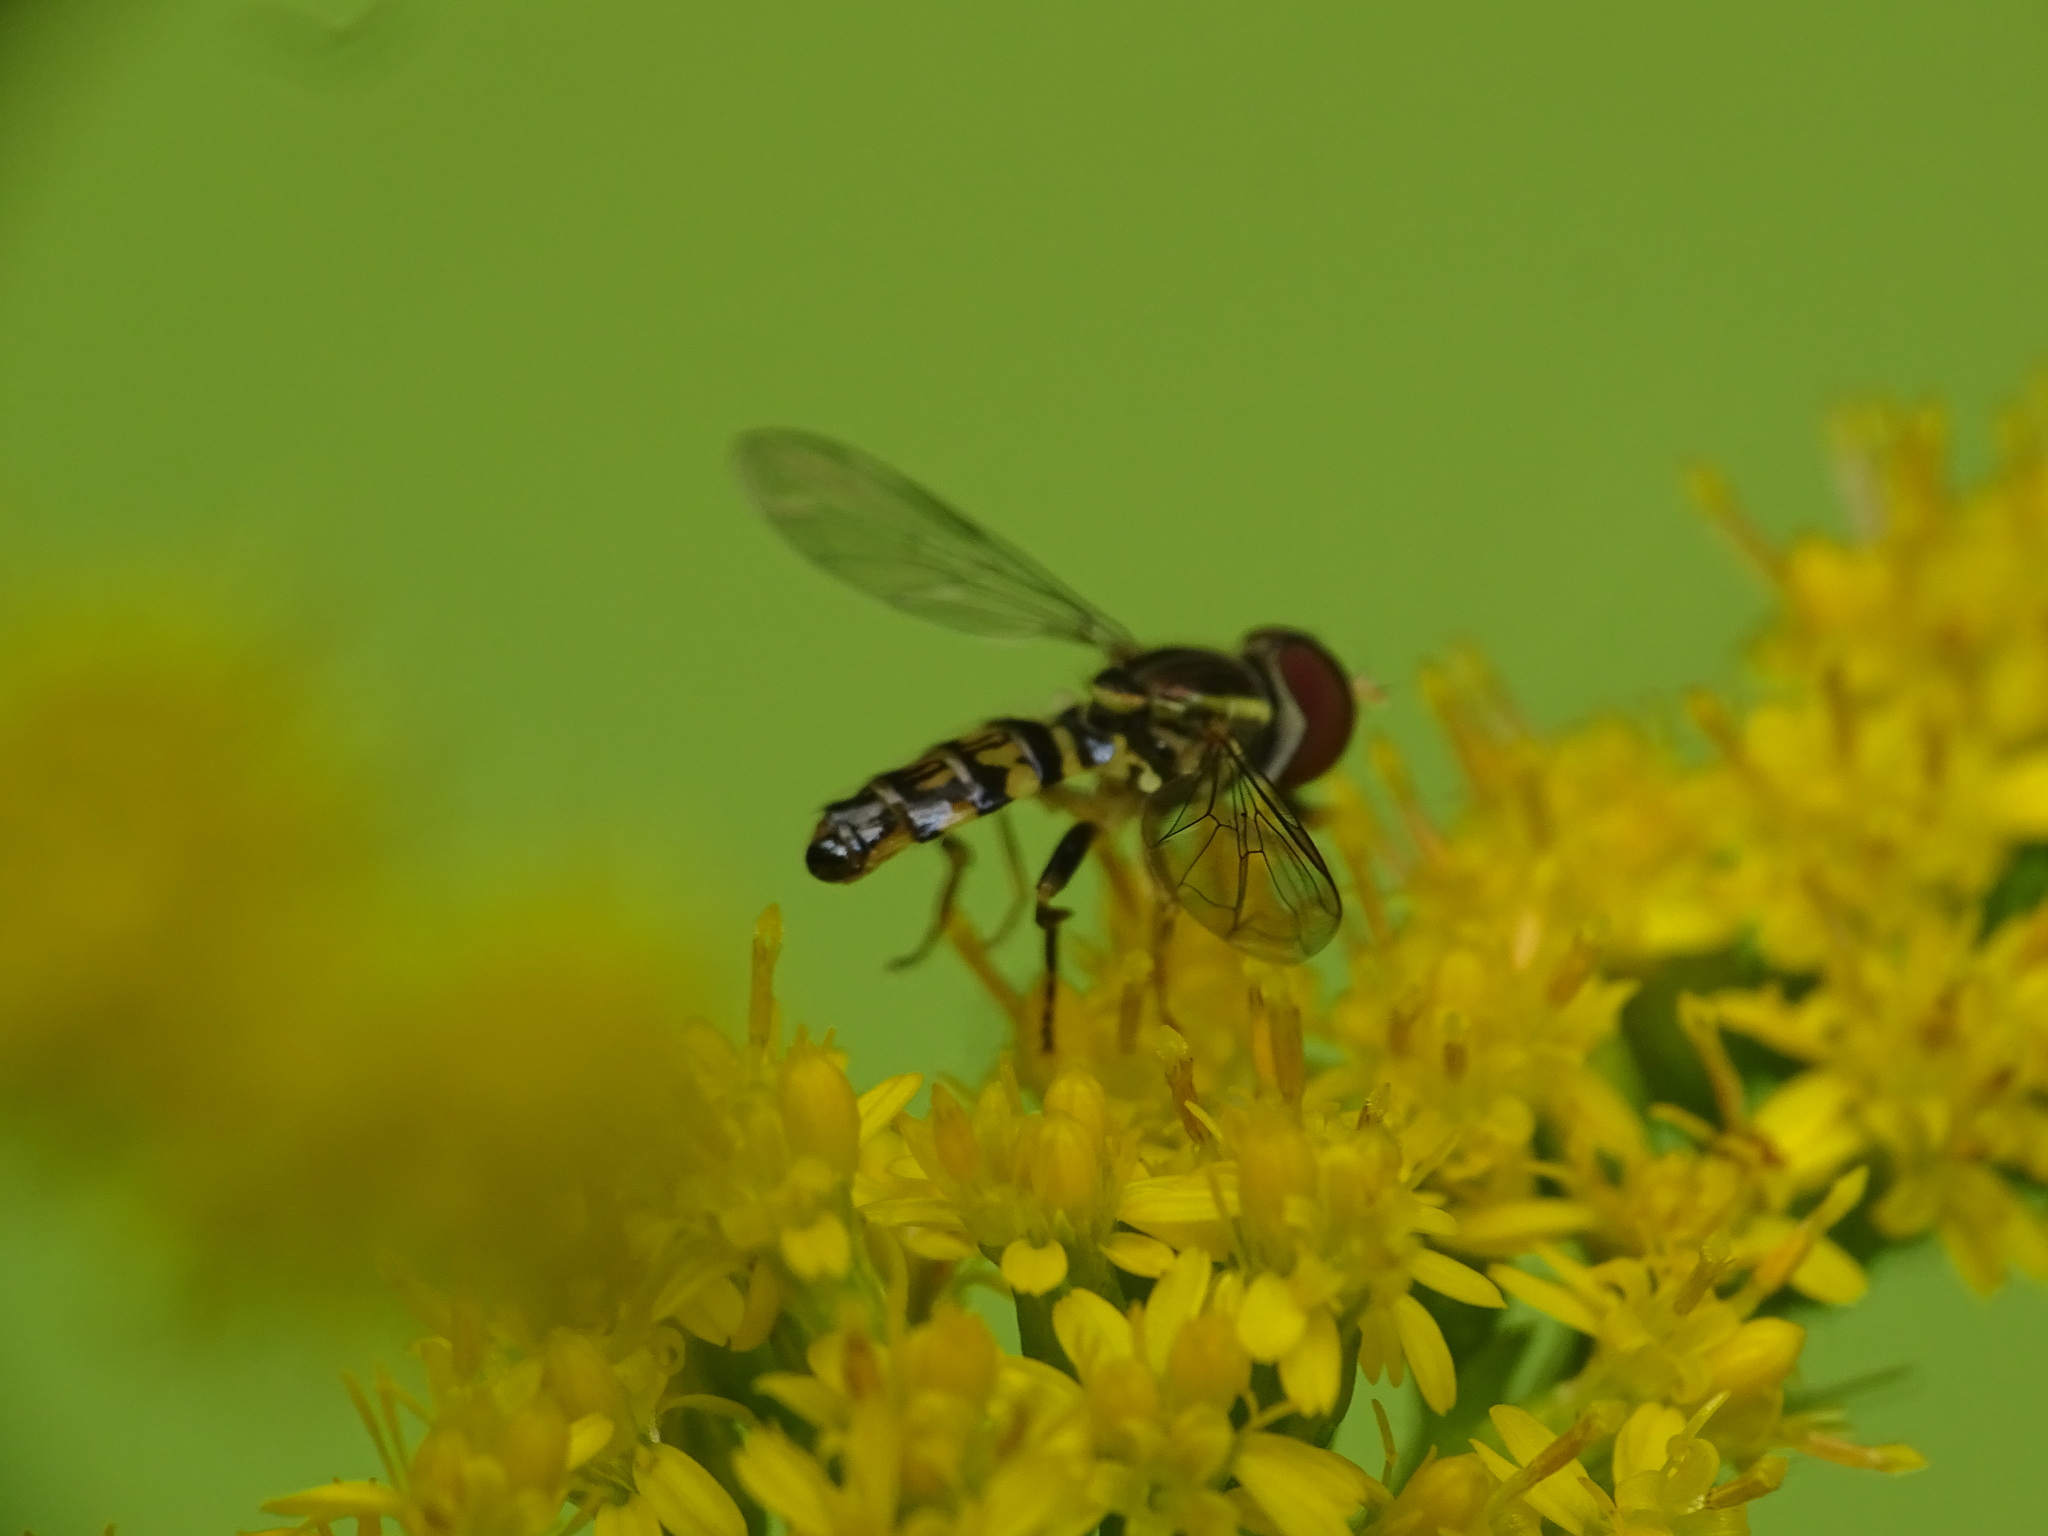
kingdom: Animalia
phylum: Arthropoda
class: Insecta
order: Diptera
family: Syrphidae
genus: Toxomerus
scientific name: Toxomerus geminatus
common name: Eastern calligrapher
